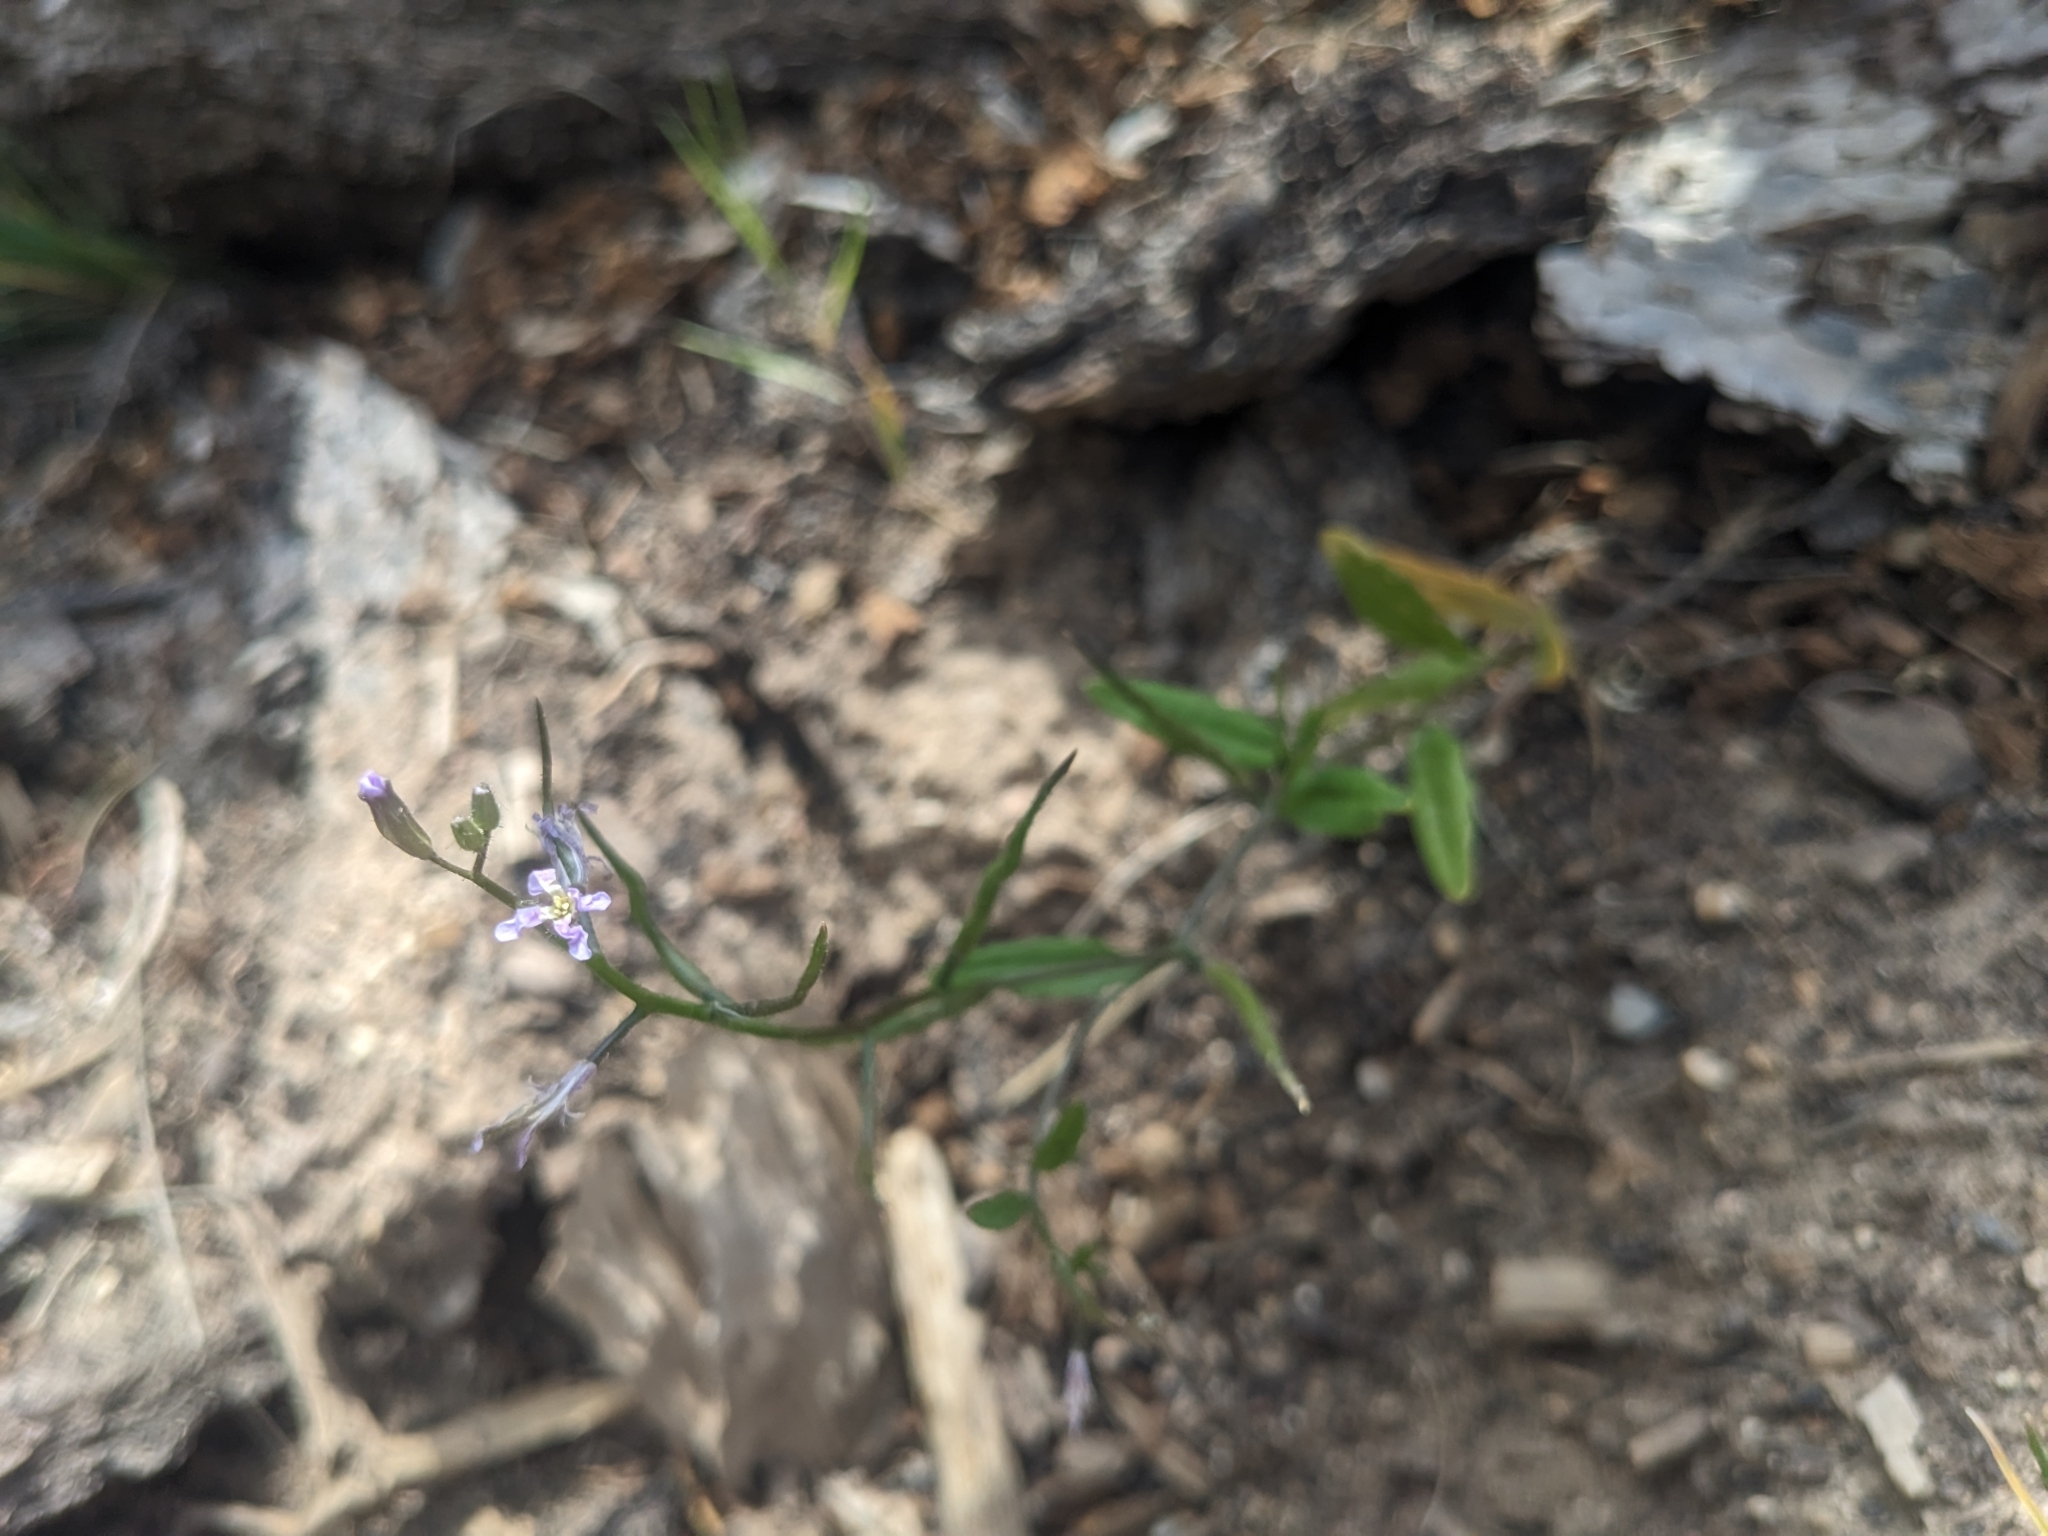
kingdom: Plantae
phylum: Tracheophyta
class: Magnoliopsida
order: Brassicales
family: Brassicaceae
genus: Chorispora
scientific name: Chorispora tenella
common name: Crossflower
